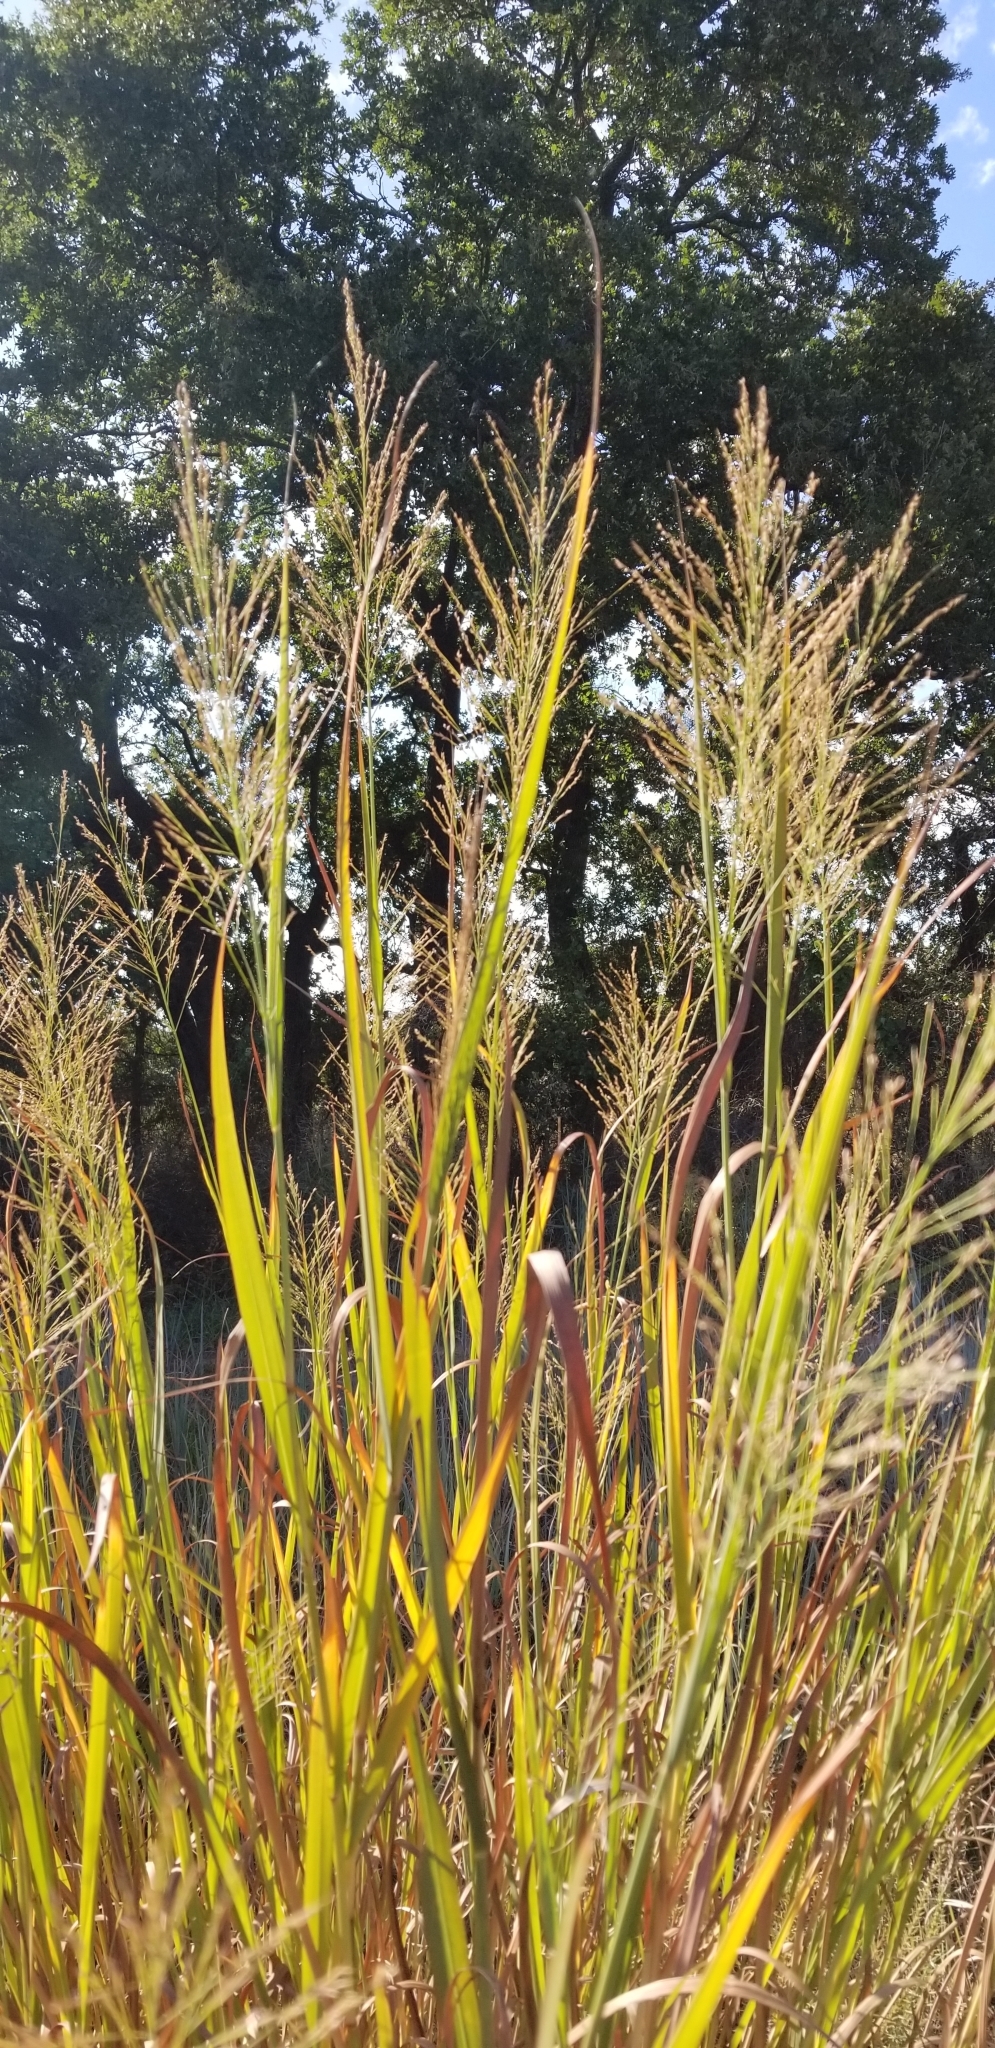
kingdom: Plantae
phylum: Tracheophyta
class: Liliopsida
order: Poales
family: Poaceae
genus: Panicum
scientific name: Panicum virgatum
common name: Switchgrass
